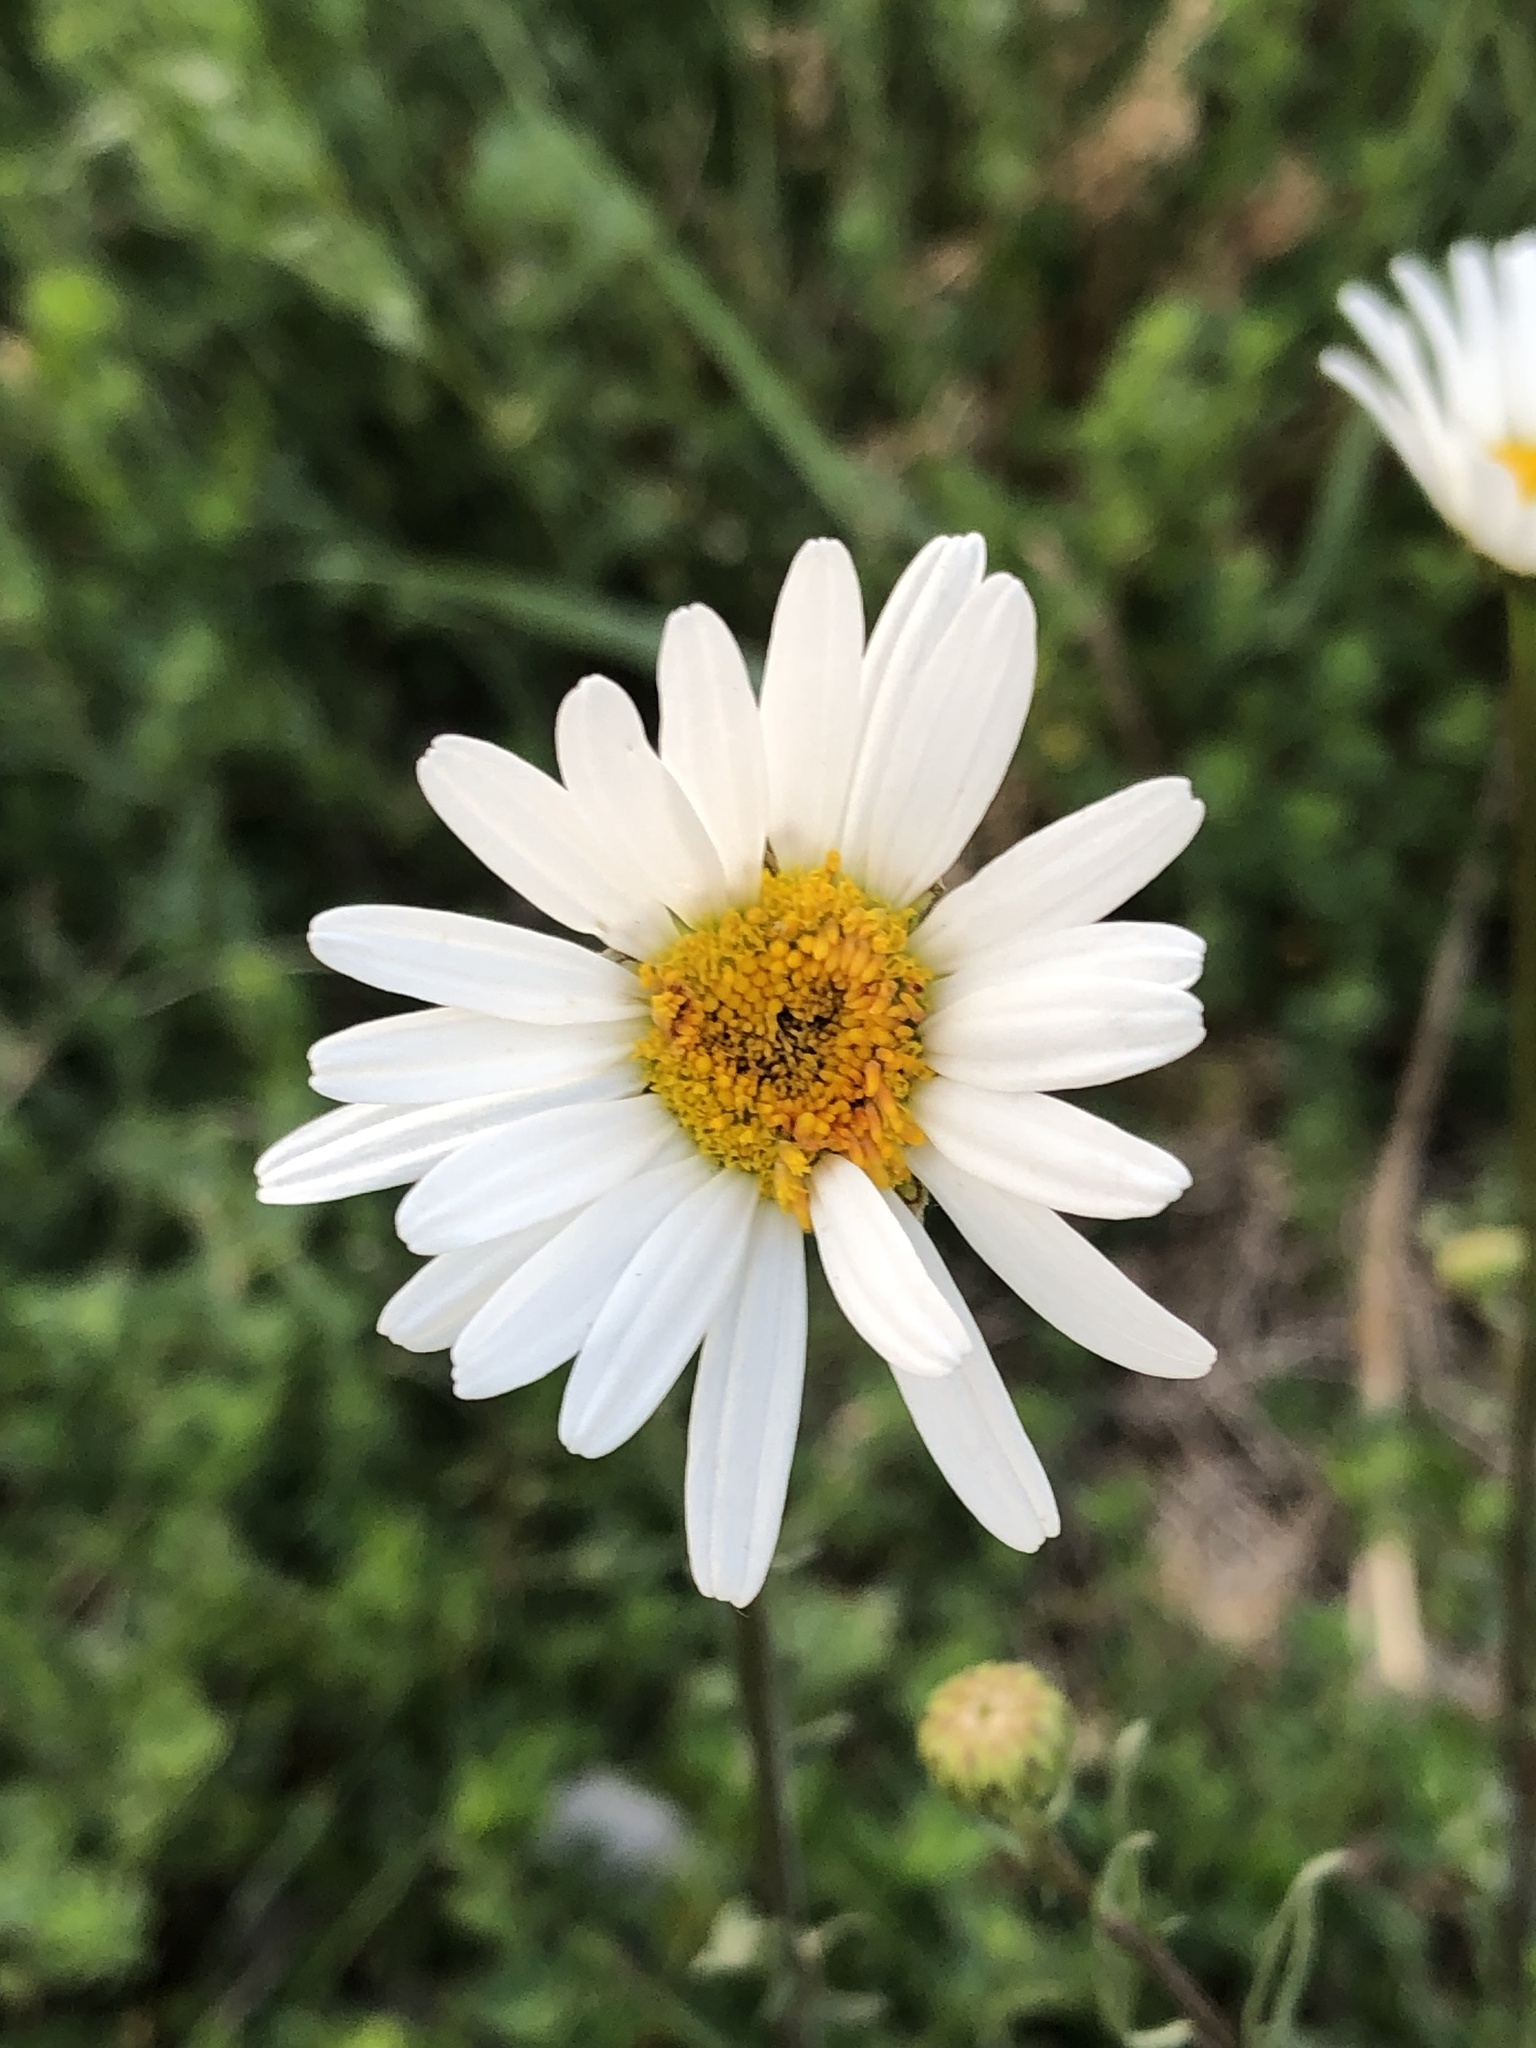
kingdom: Plantae
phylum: Tracheophyta
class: Magnoliopsida
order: Asterales
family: Asteraceae
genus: Leucanthemum
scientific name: Leucanthemum vulgare
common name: Oxeye daisy
